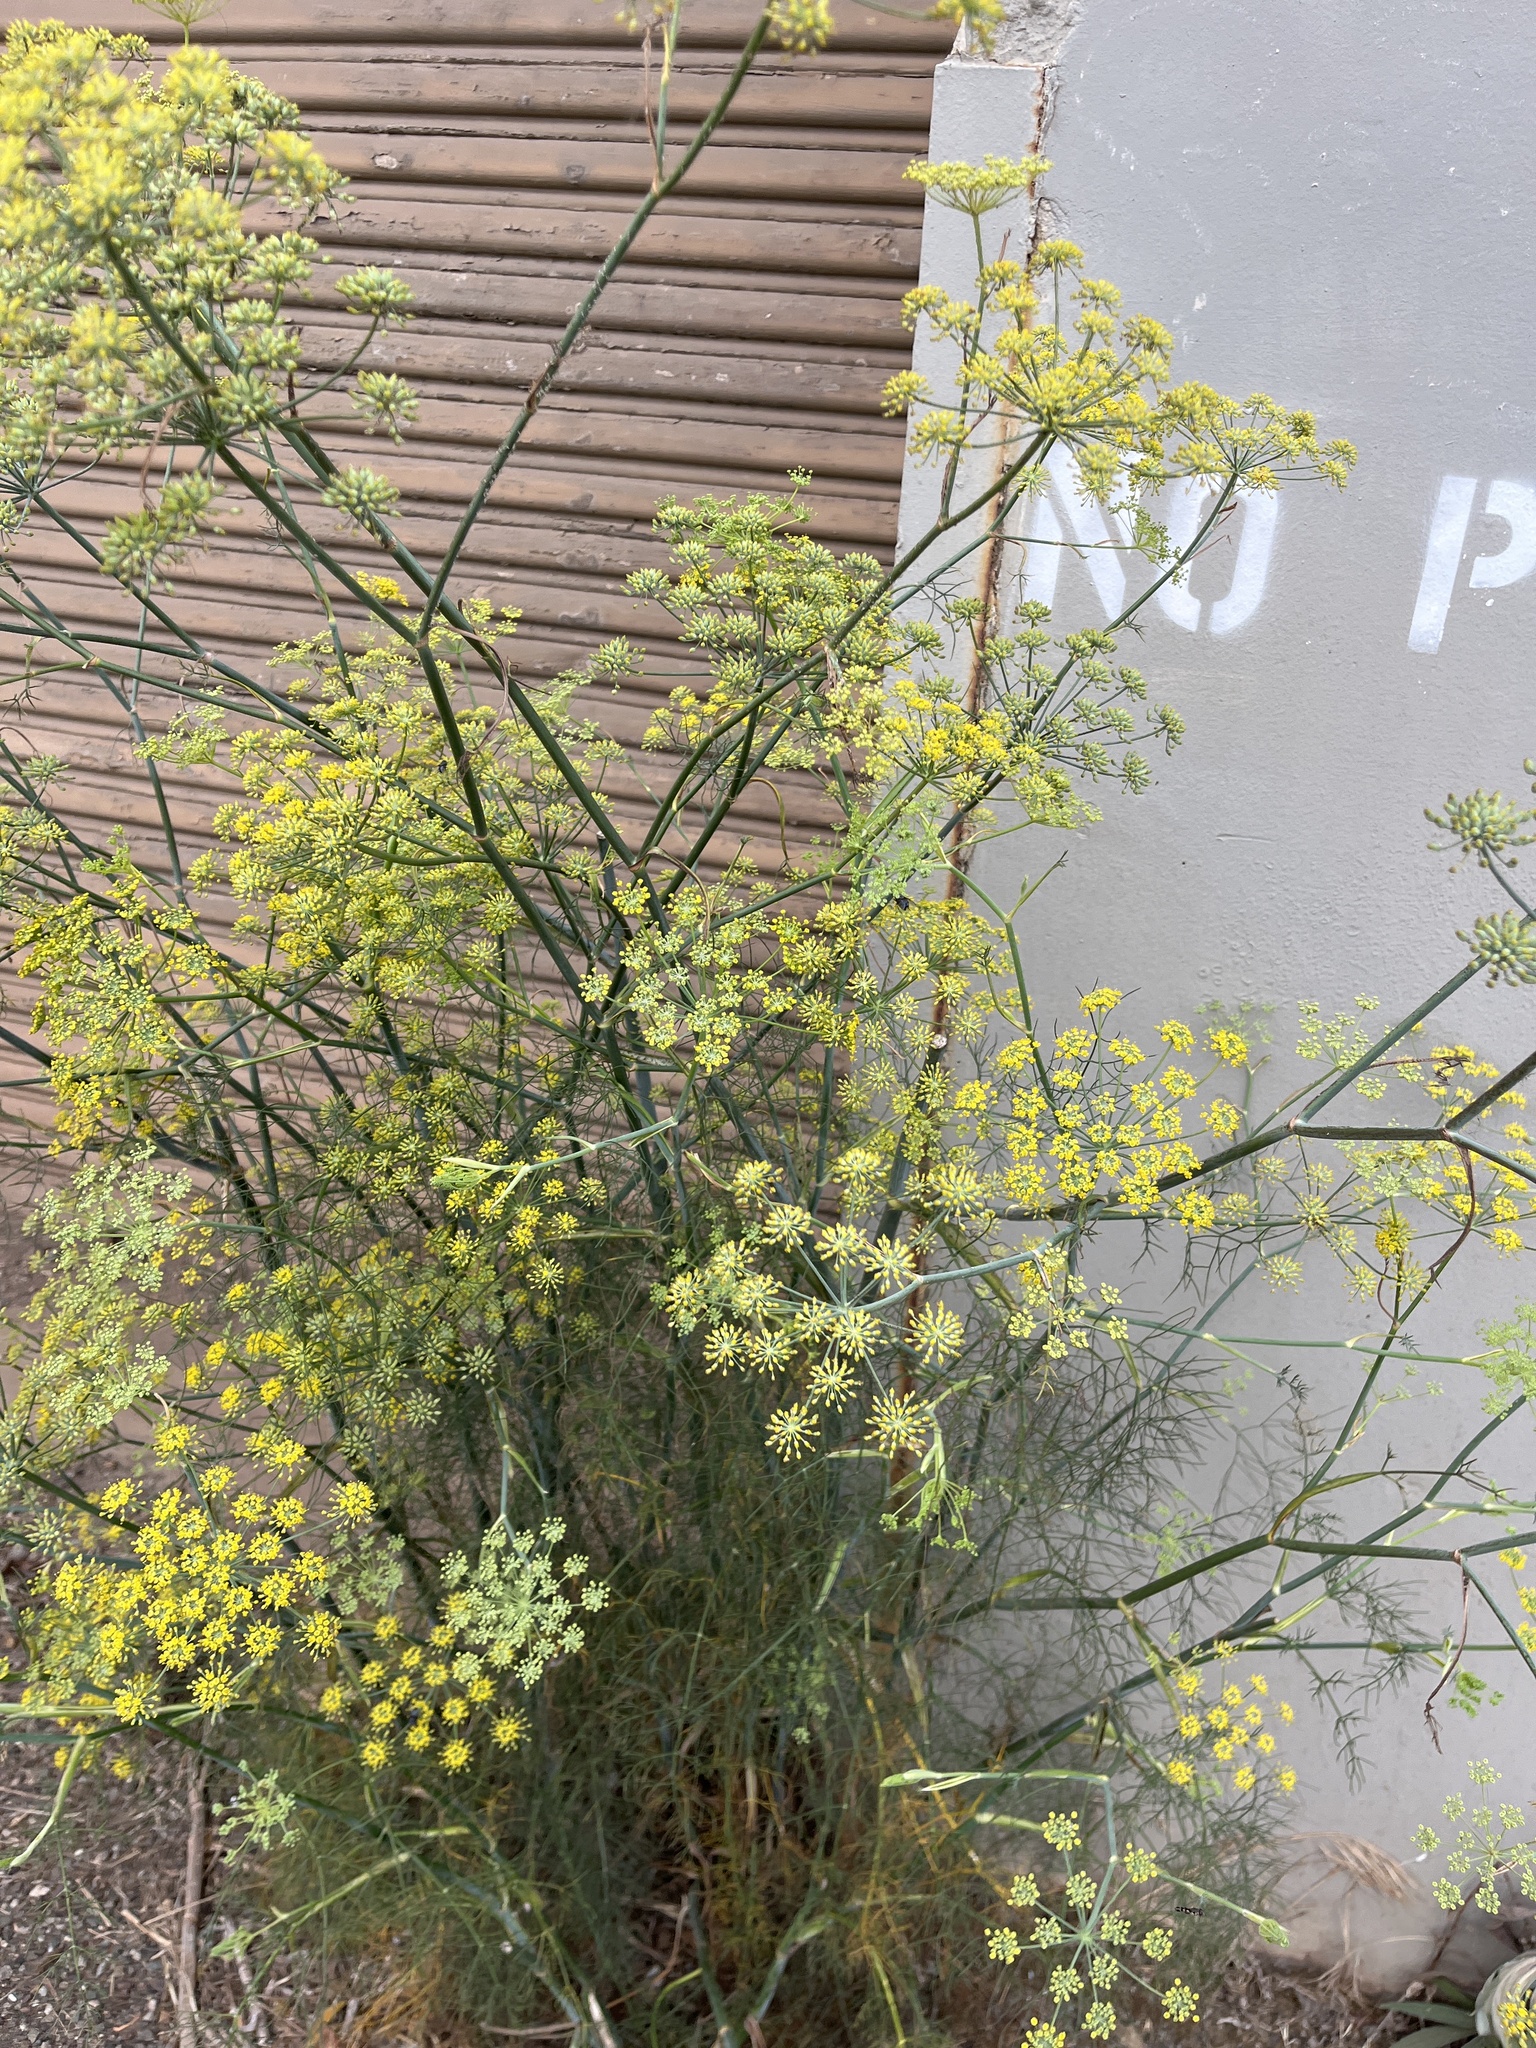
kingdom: Plantae
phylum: Tracheophyta
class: Magnoliopsida
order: Apiales
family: Apiaceae
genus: Foeniculum
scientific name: Foeniculum vulgare
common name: Fennel
